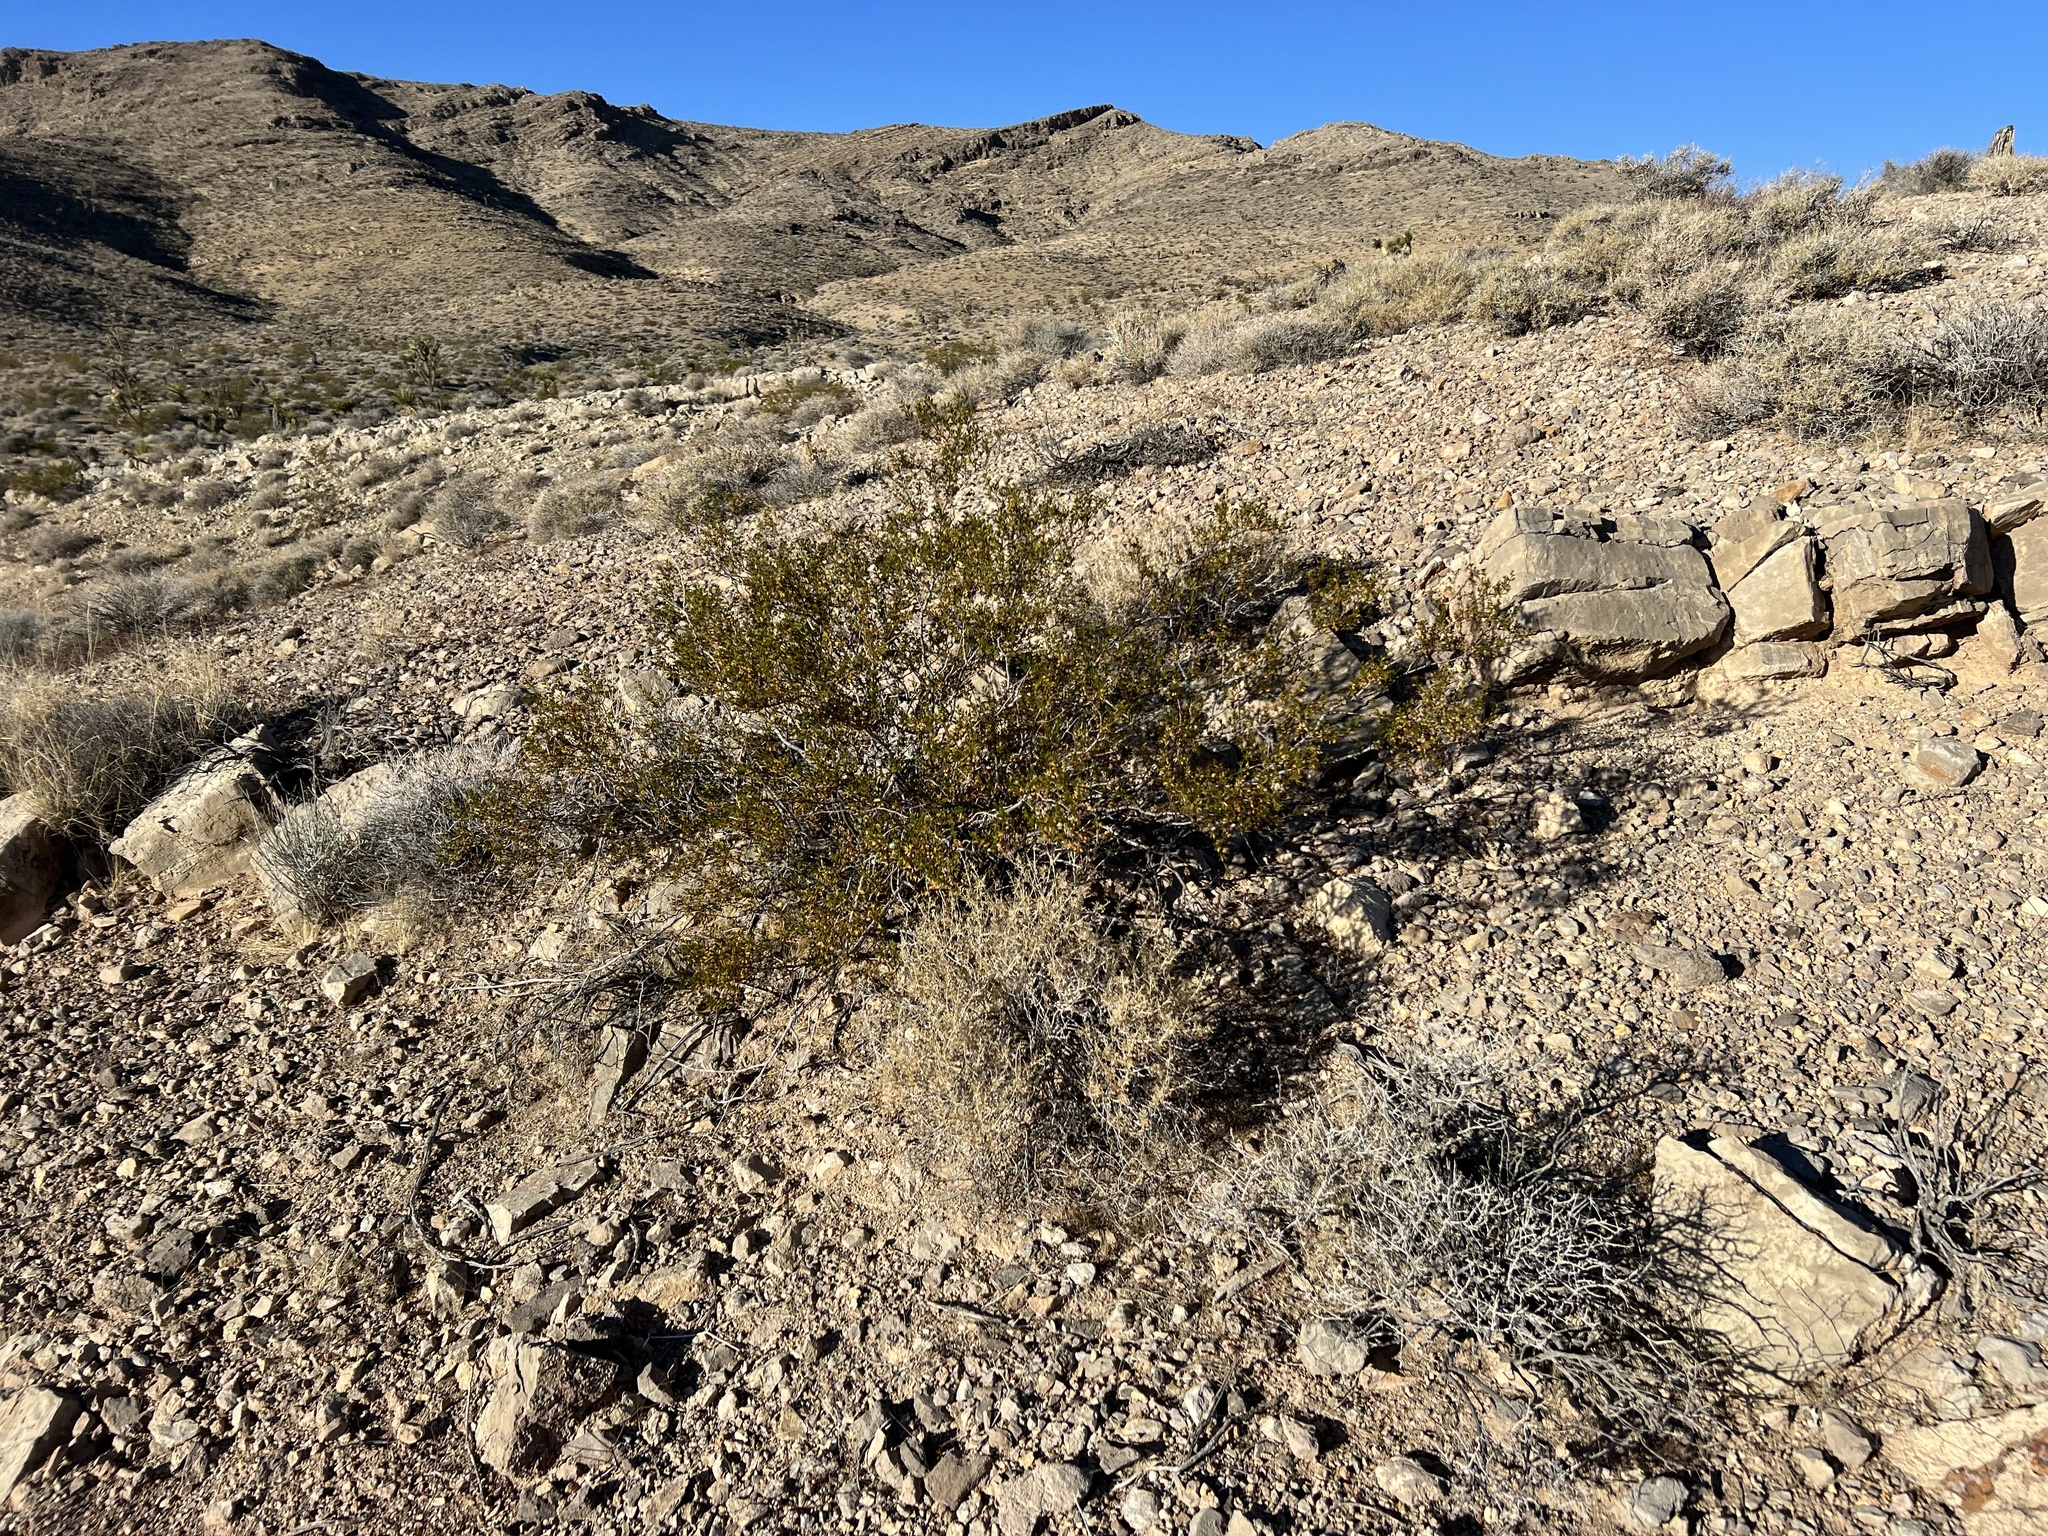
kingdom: Plantae
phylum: Tracheophyta
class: Magnoliopsida
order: Zygophyllales
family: Zygophyllaceae
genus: Larrea
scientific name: Larrea tridentata
